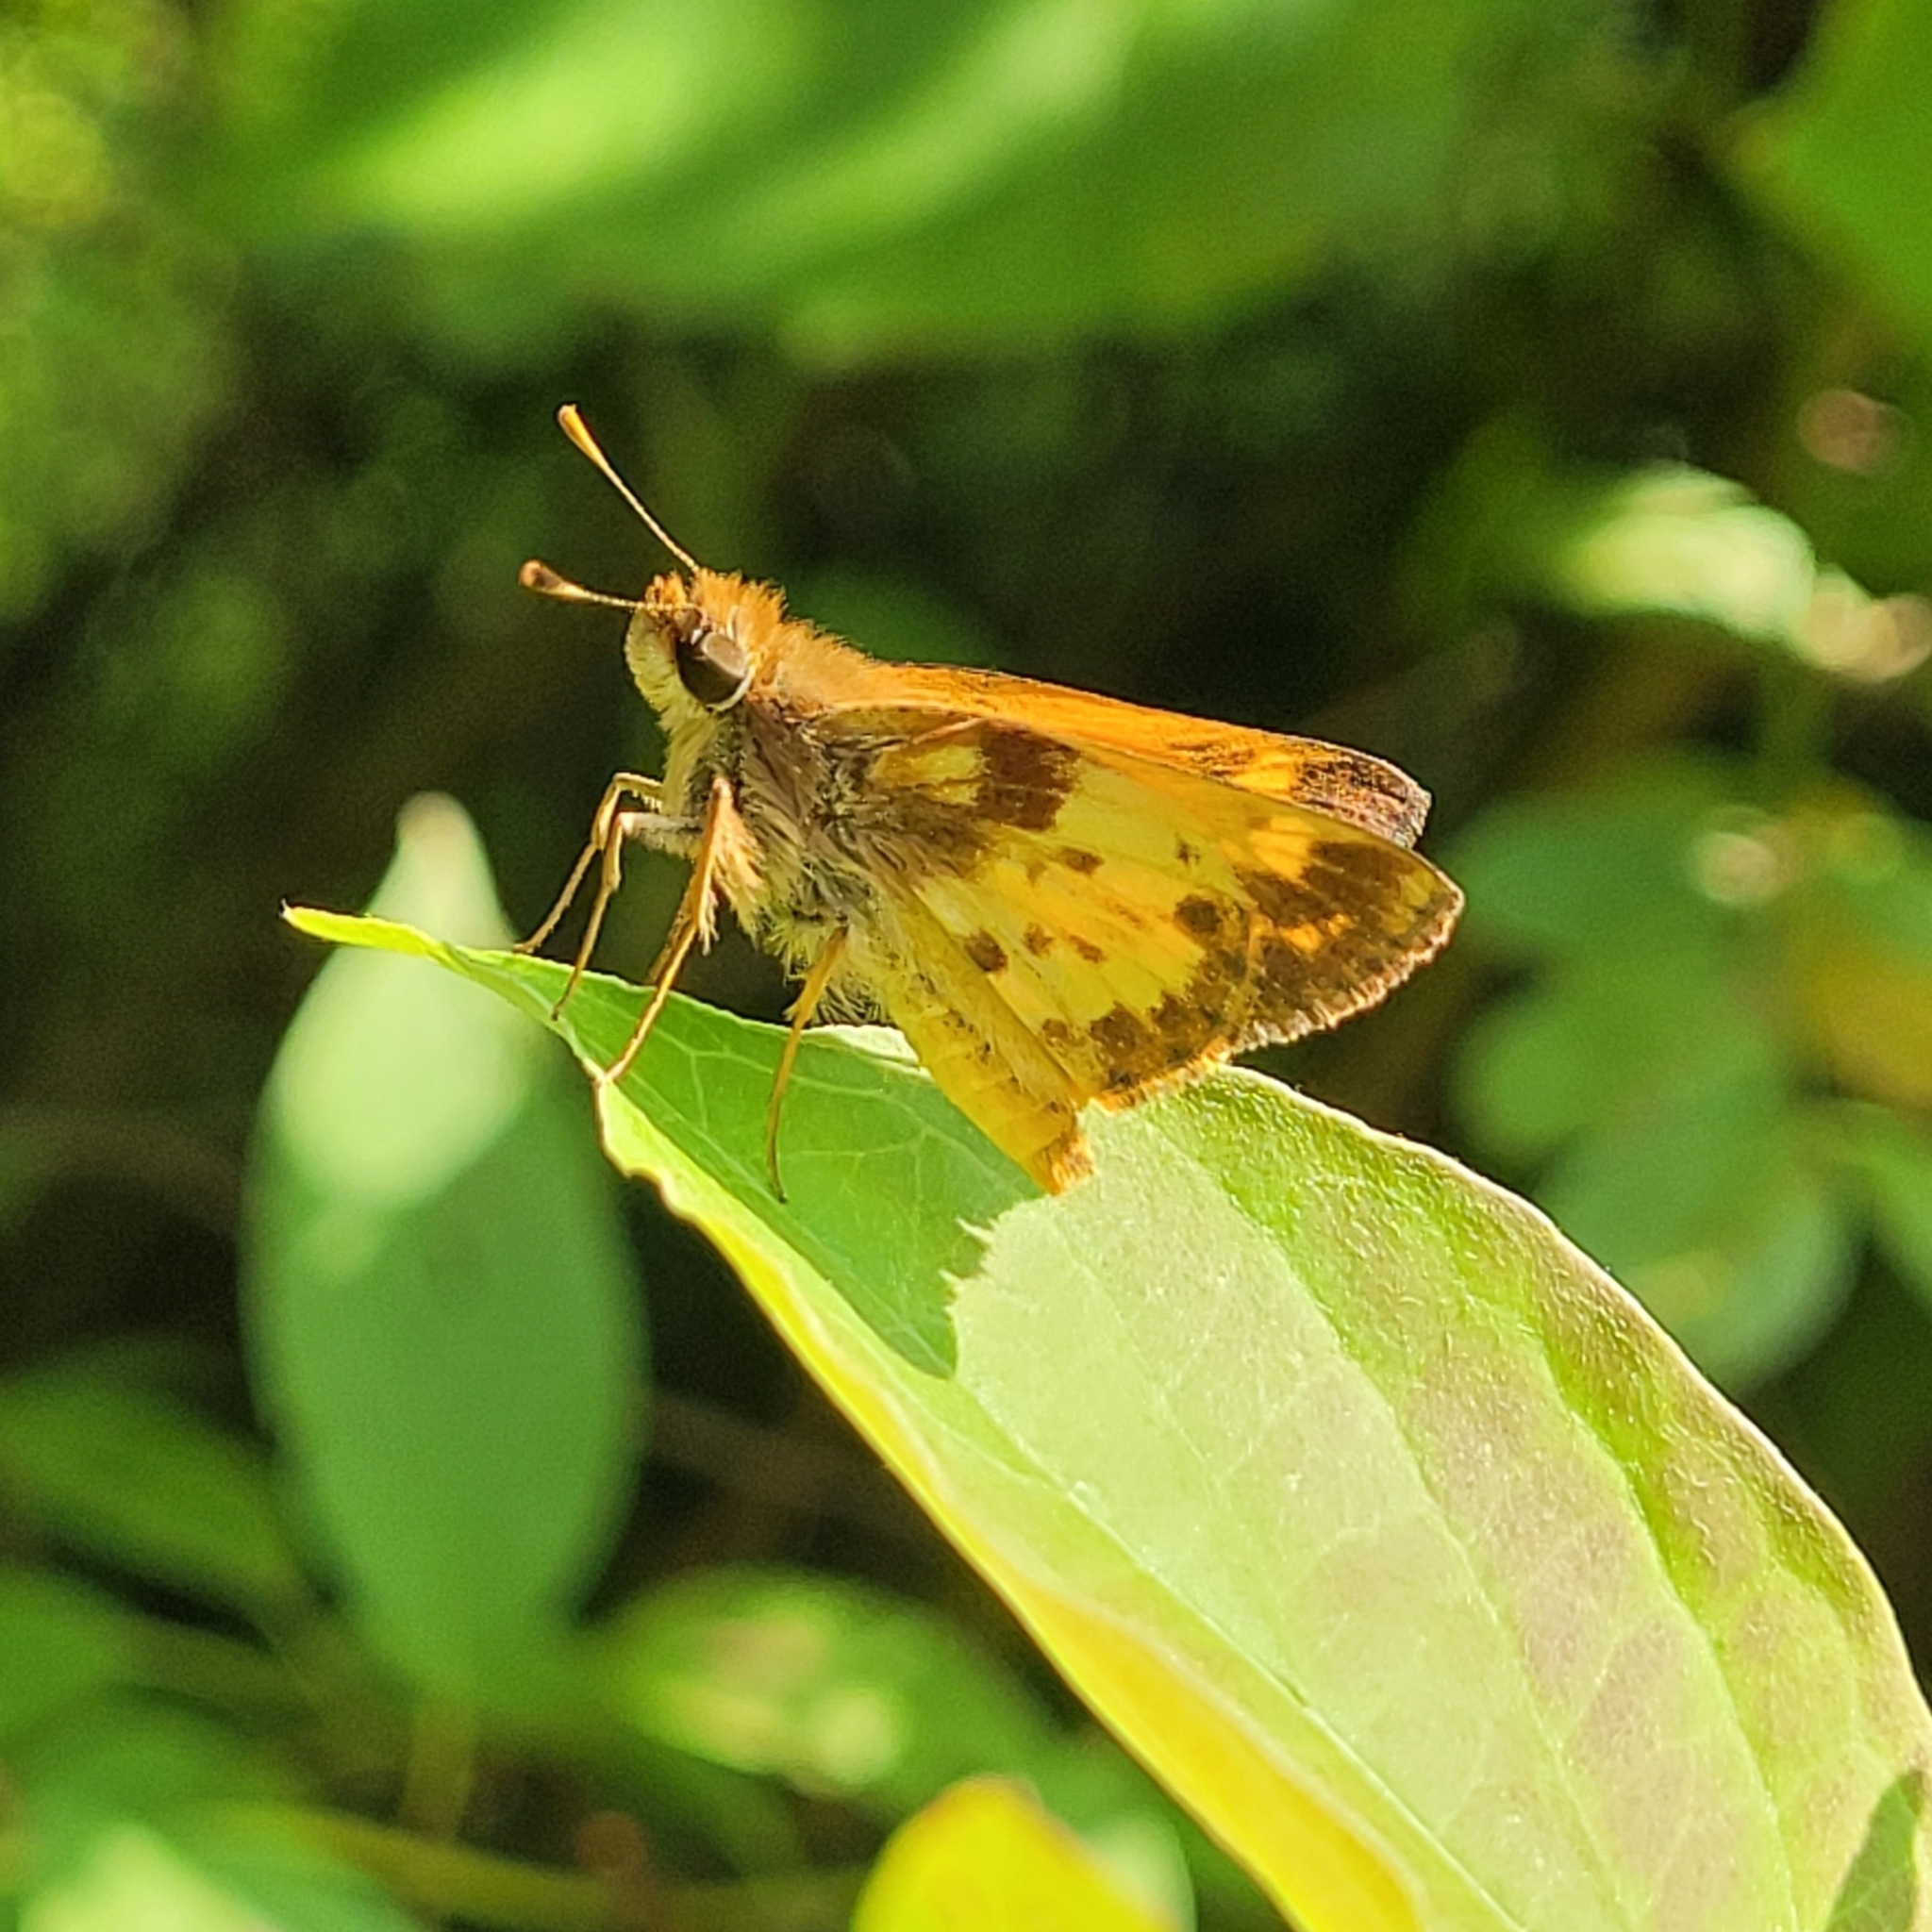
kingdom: Animalia
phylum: Arthropoda
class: Insecta
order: Lepidoptera
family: Hesperiidae
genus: Lon
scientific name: Lon zabulon
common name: Zabulon skipper
